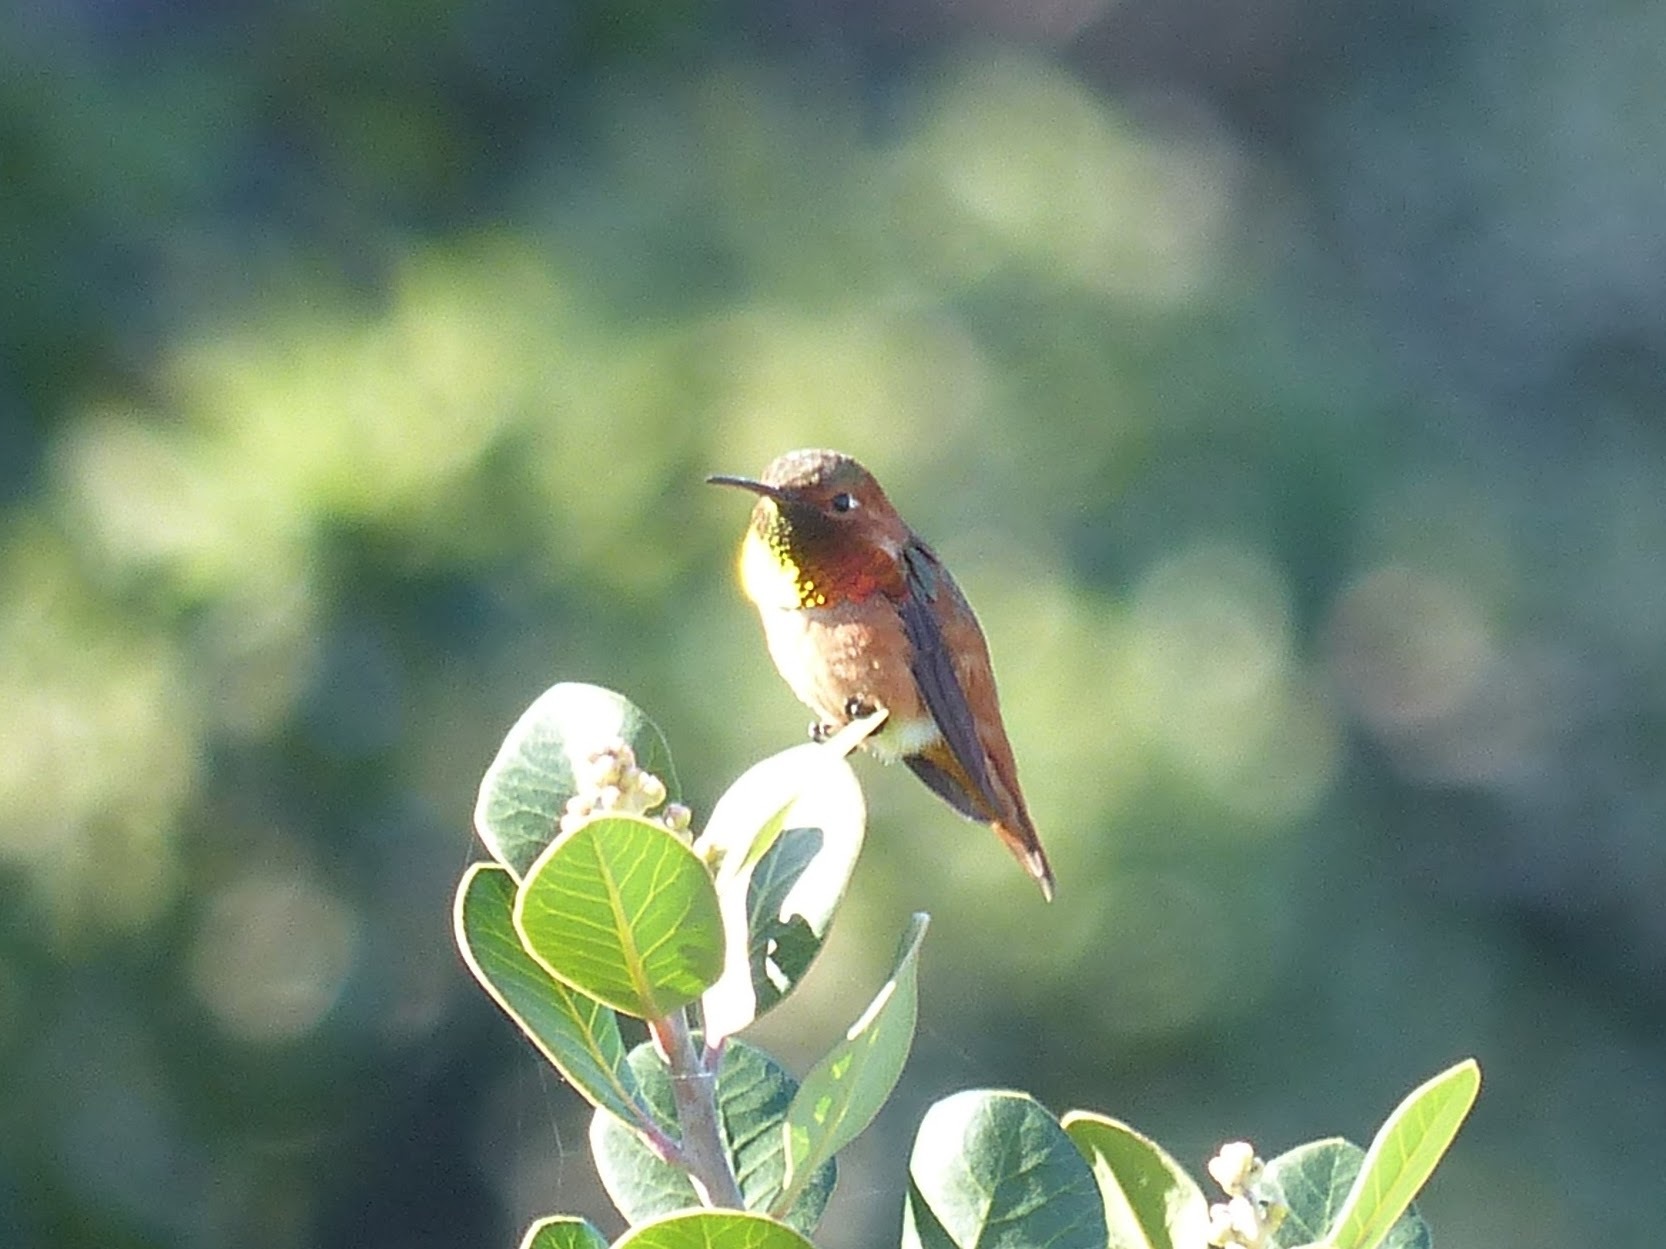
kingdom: Animalia
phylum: Chordata
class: Aves
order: Apodiformes
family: Trochilidae
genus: Selasphorus
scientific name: Selasphorus sasin
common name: Allen's hummingbird
